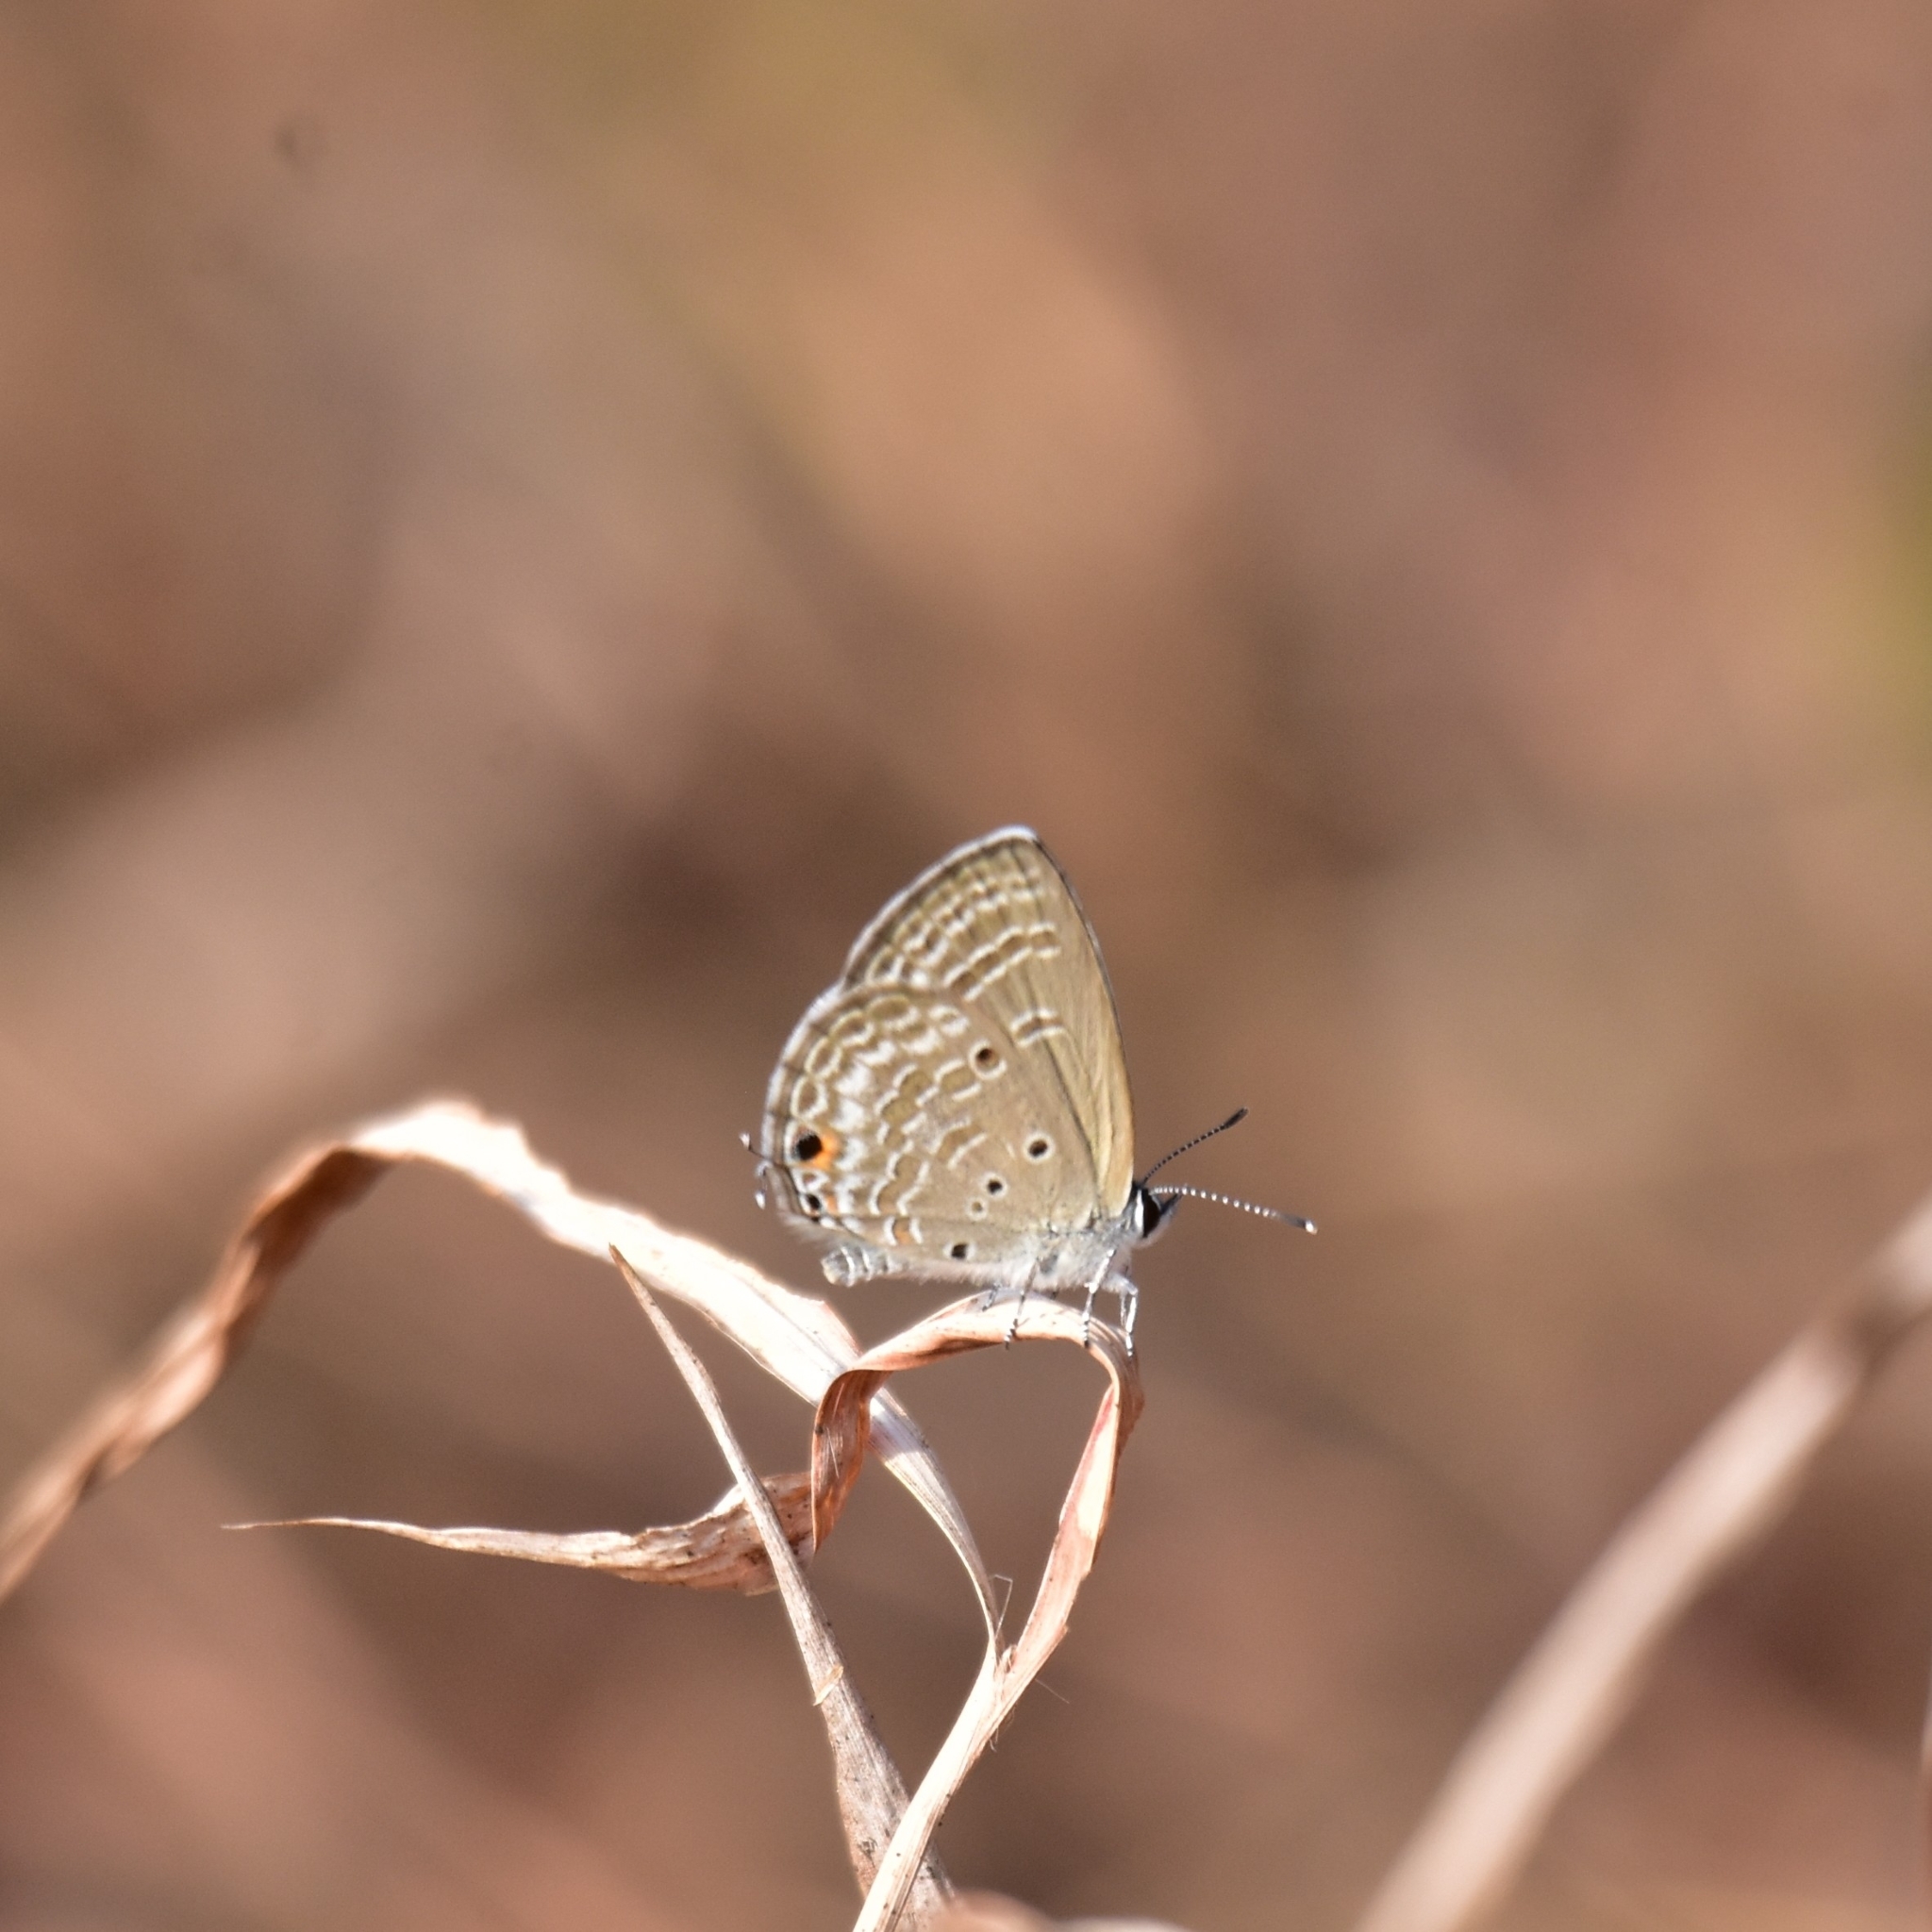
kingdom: Animalia
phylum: Arthropoda
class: Insecta
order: Lepidoptera
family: Lycaenidae
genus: Luthrodes
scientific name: Luthrodes pandava
